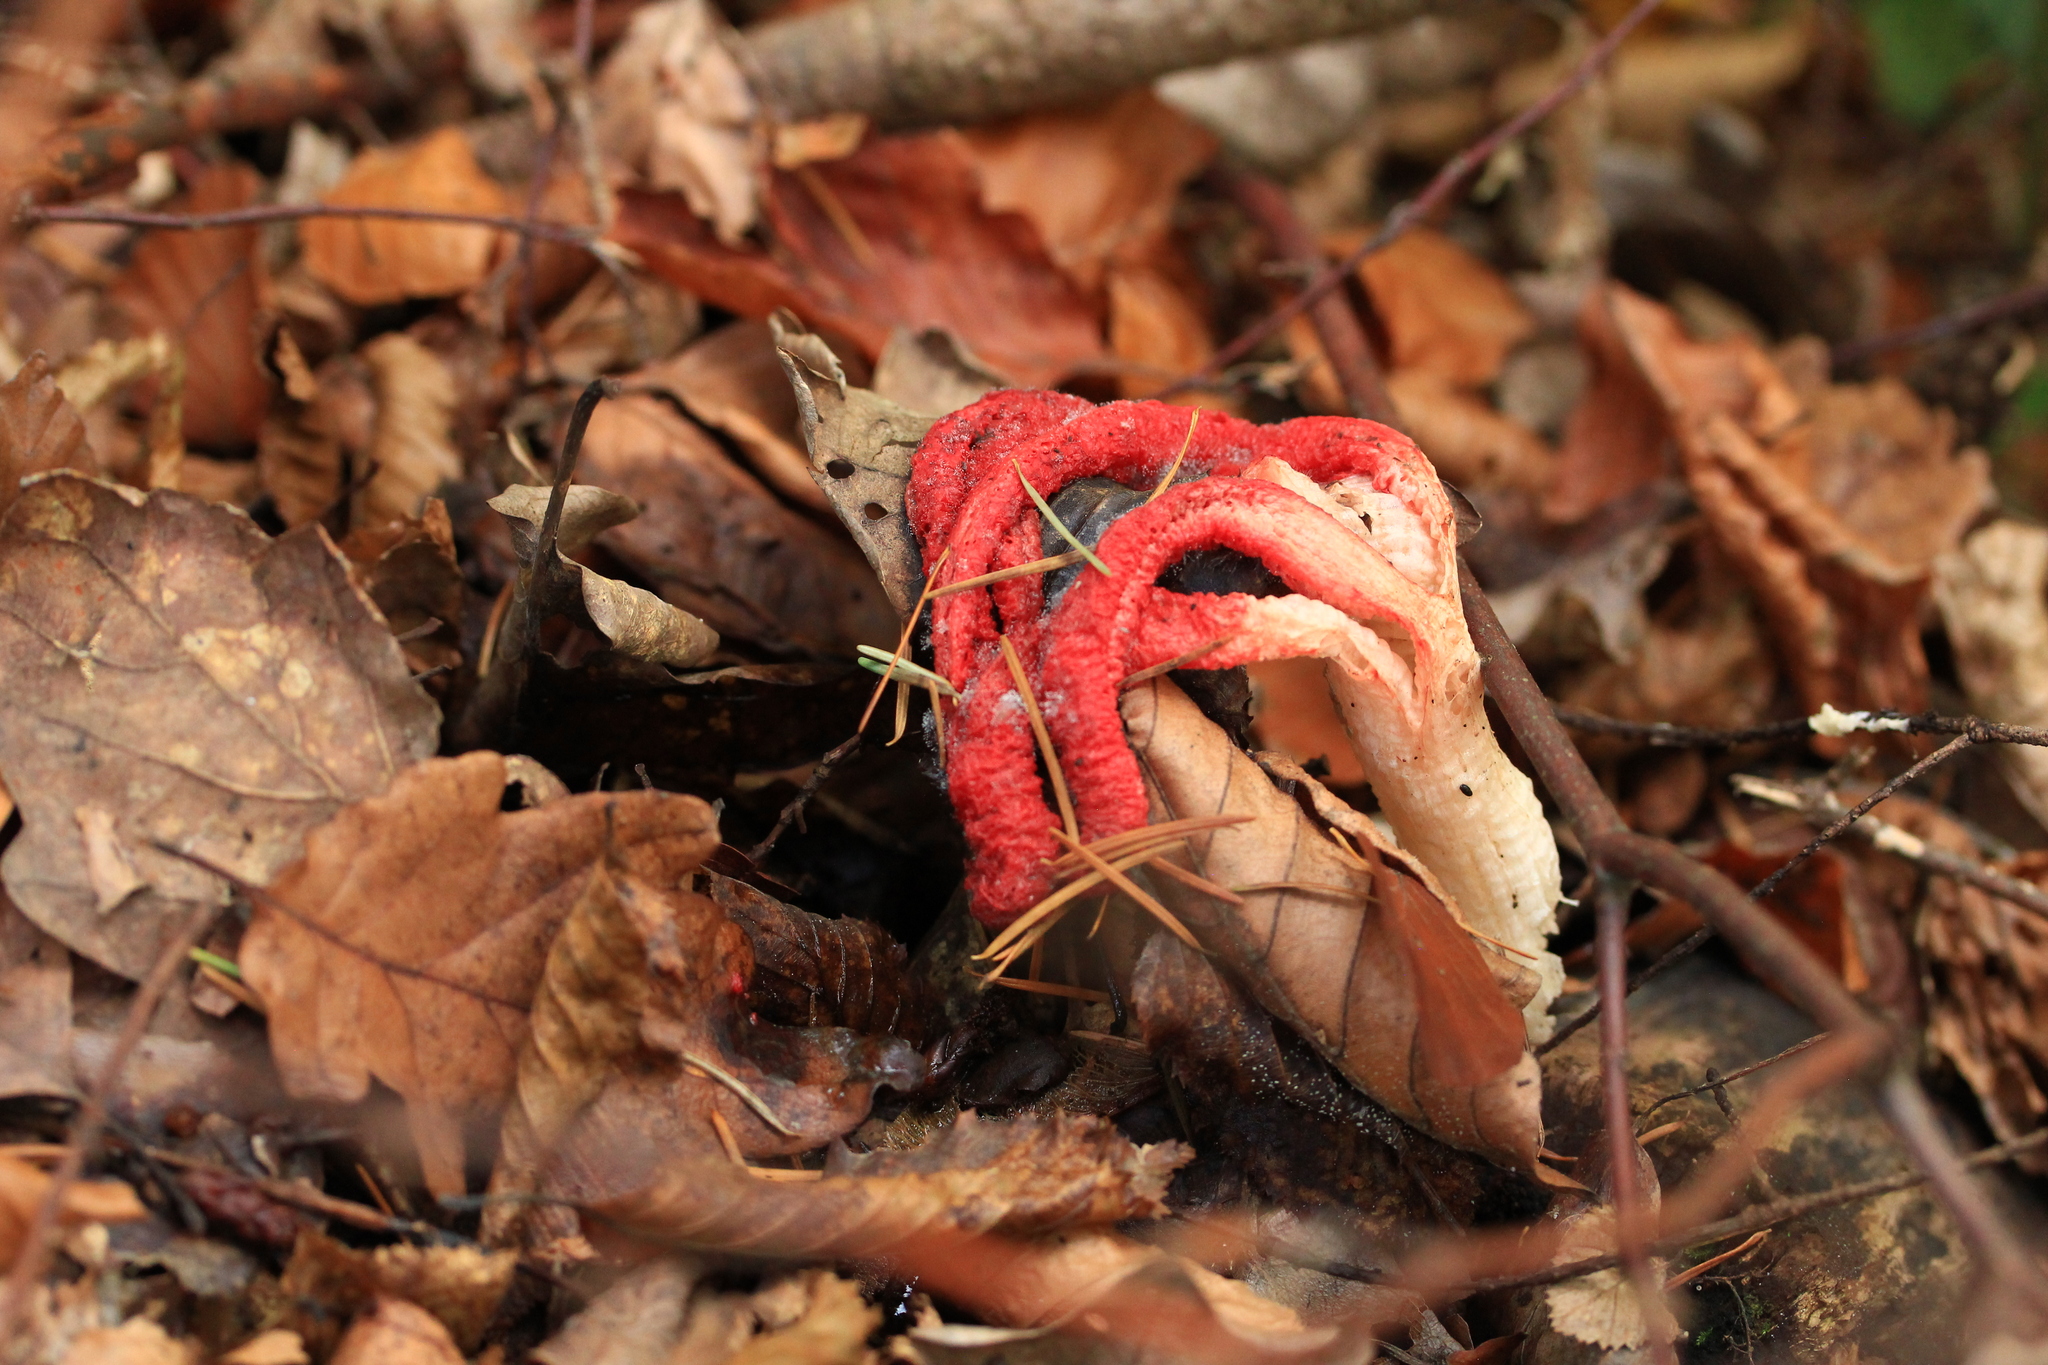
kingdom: Fungi
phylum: Basidiomycota
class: Agaricomycetes
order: Phallales
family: Phallaceae
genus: Clathrus
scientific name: Clathrus archeri
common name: Devil's fingers
